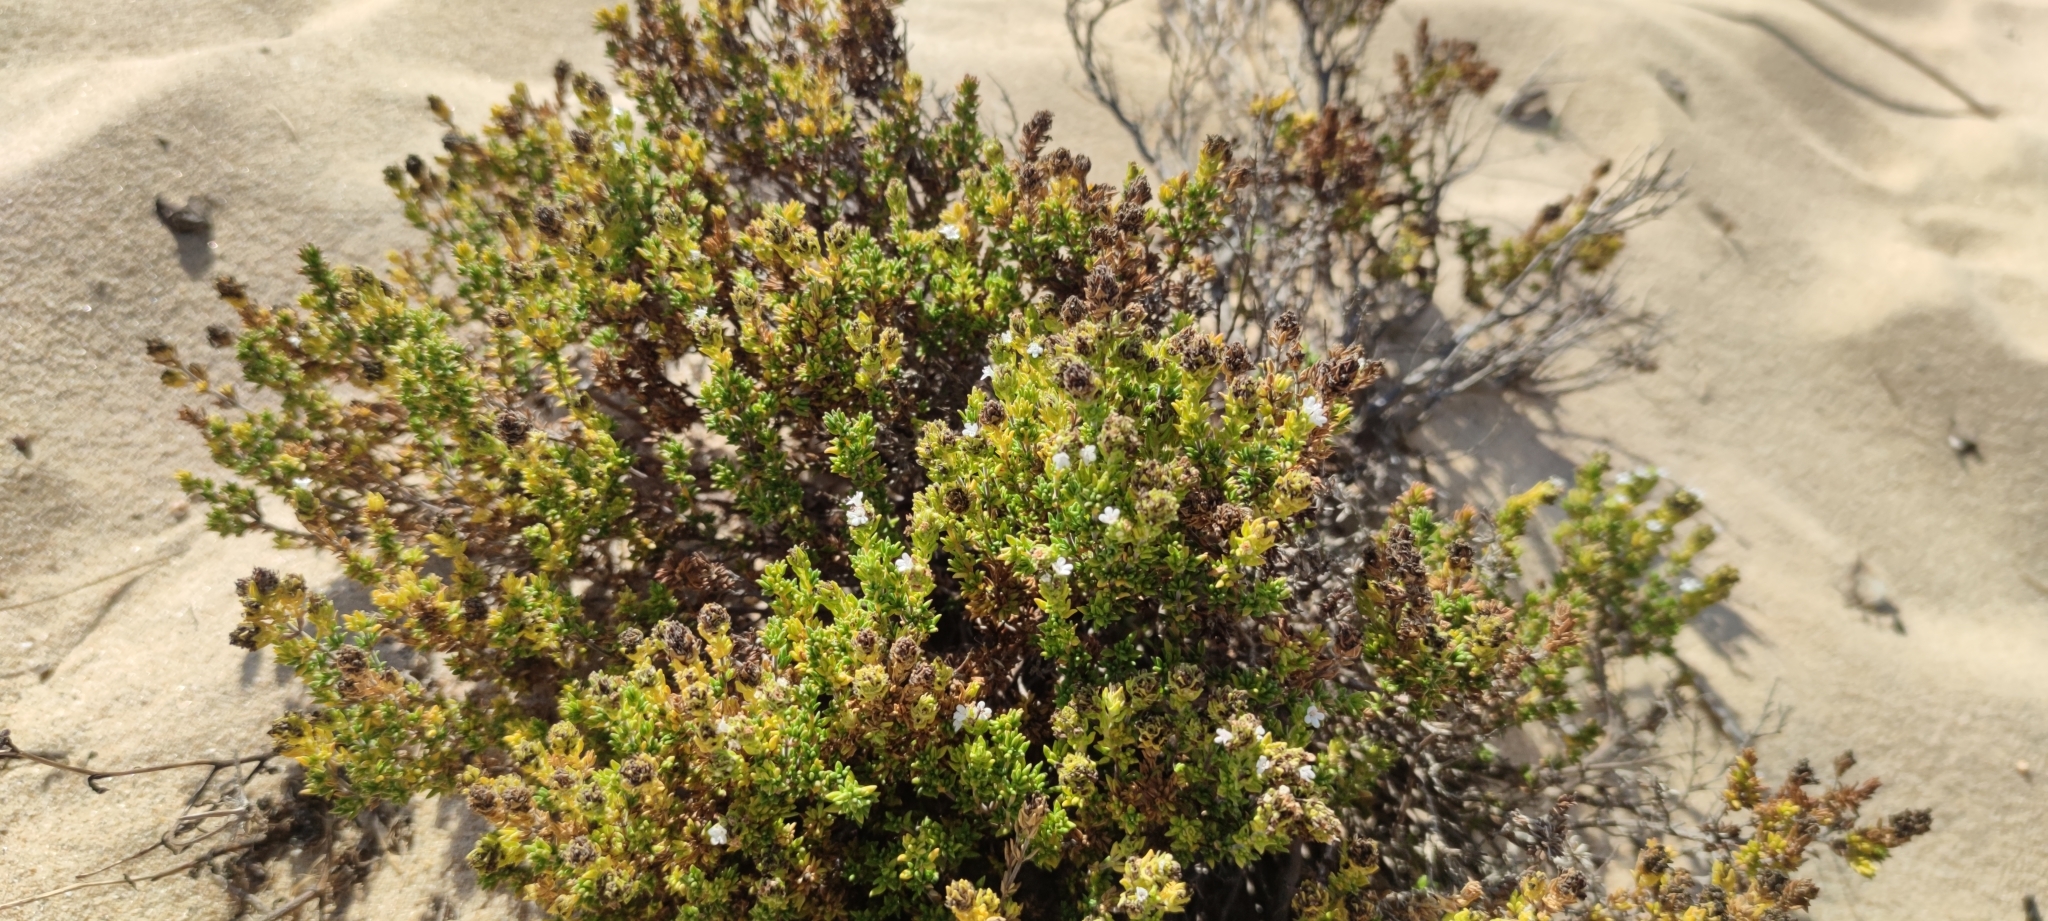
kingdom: Plantae
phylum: Tracheophyta
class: Magnoliopsida
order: Lamiales
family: Lamiaceae
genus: Thymus
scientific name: Thymus carnosus
